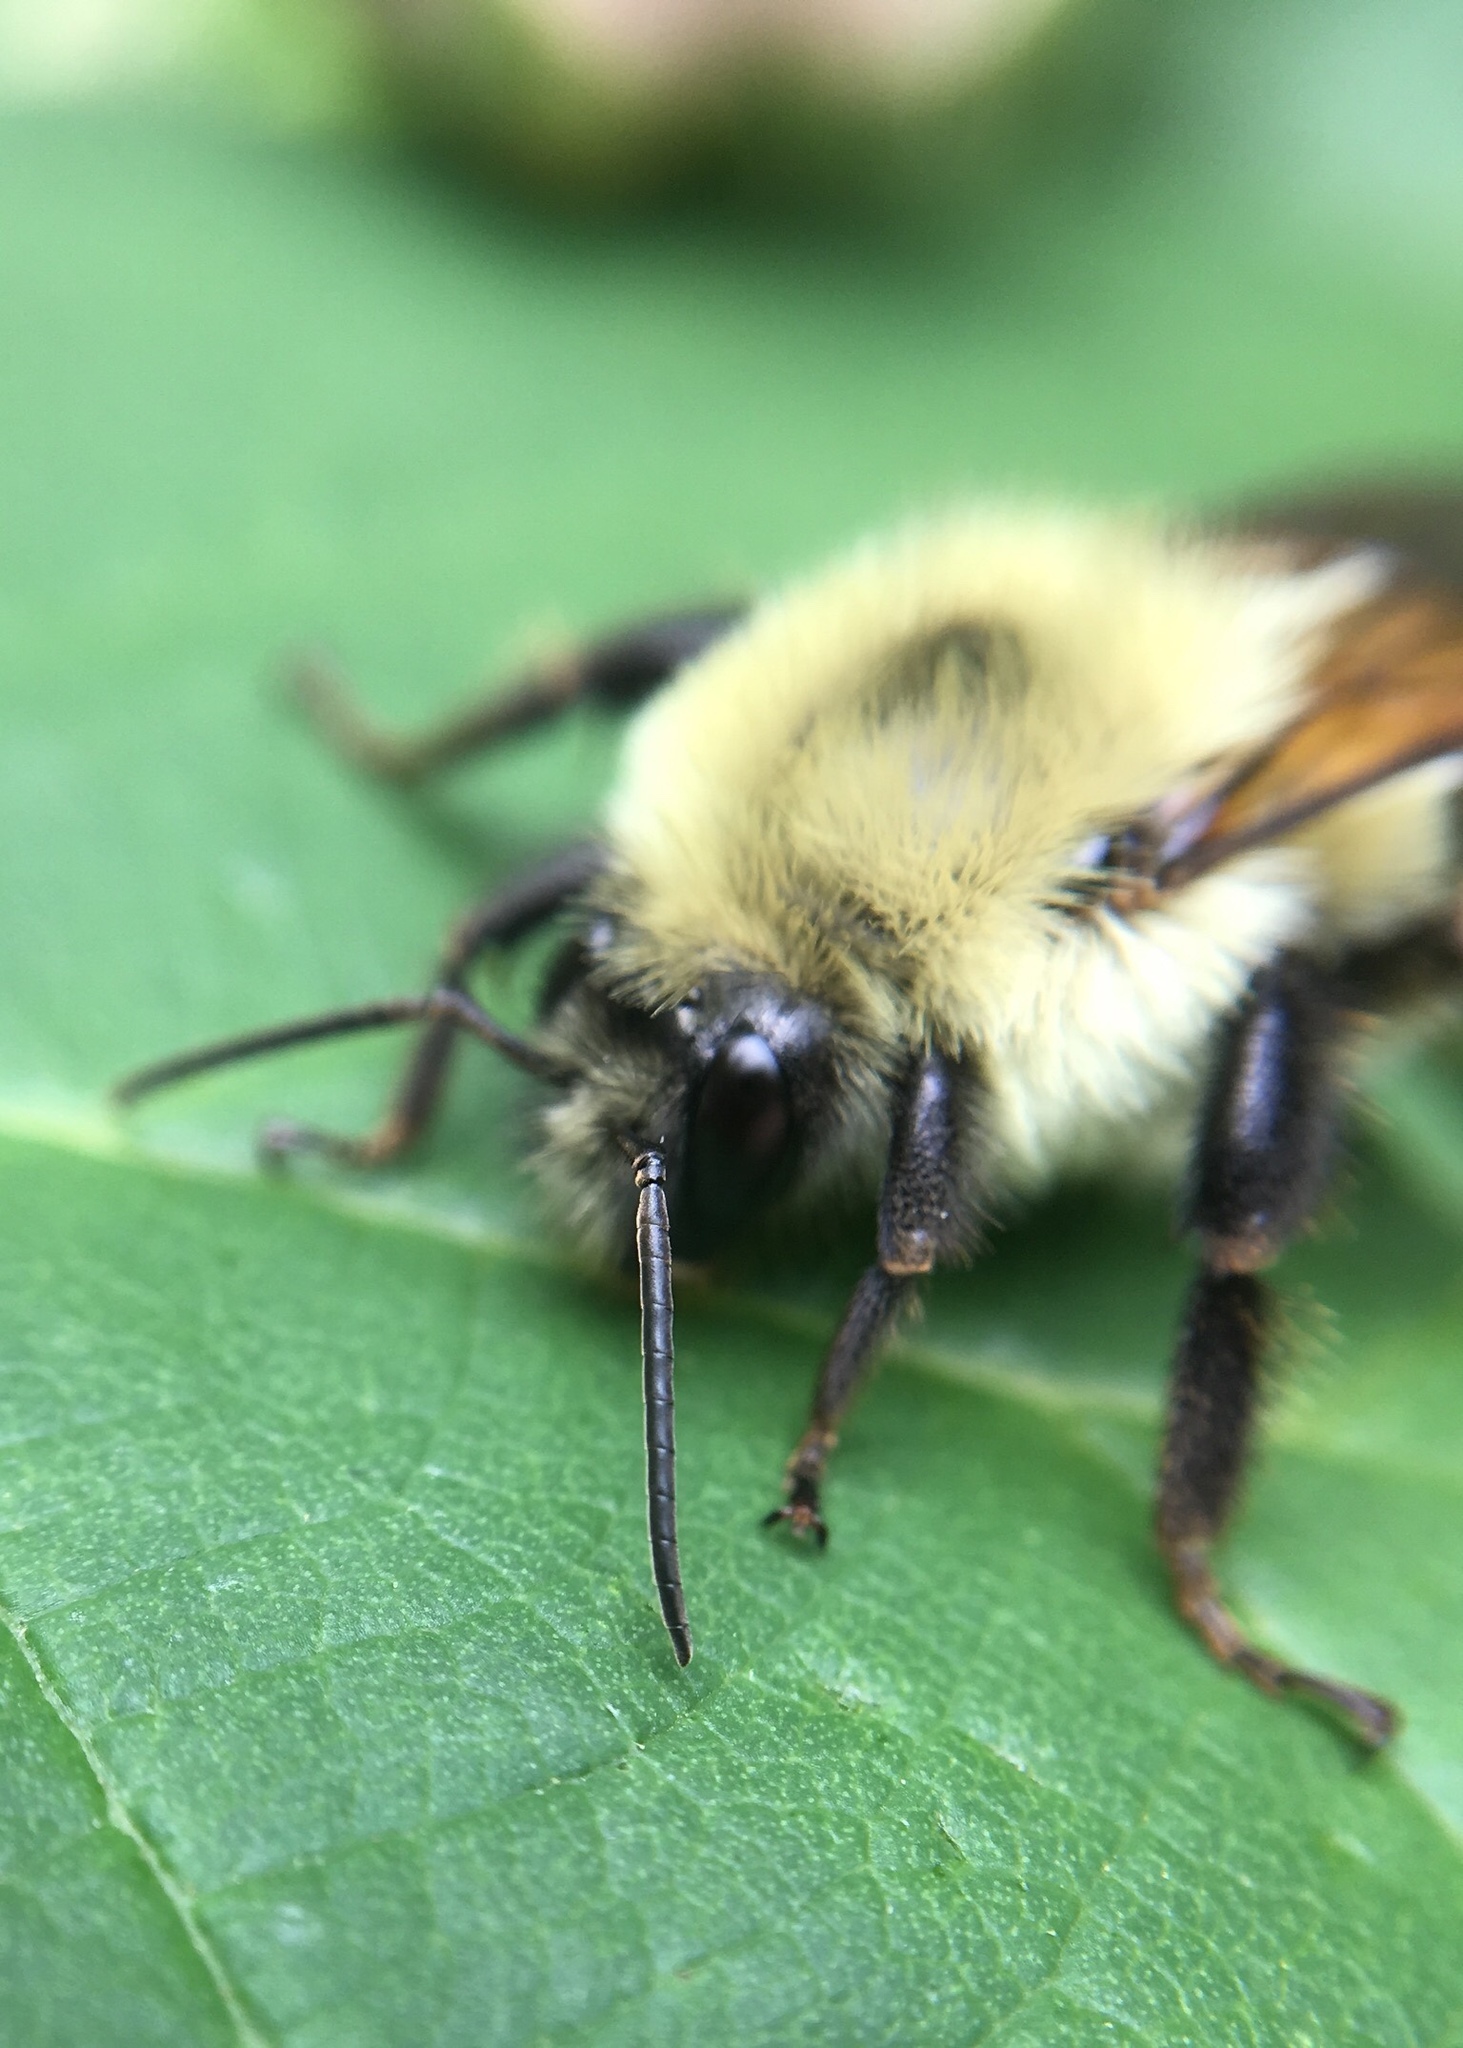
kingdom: Animalia
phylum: Arthropoda
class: Insecta
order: Hymenoptera
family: Apidae
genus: Bombus
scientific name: Bombus bimaculatus
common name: Two-spotted bumble bee
